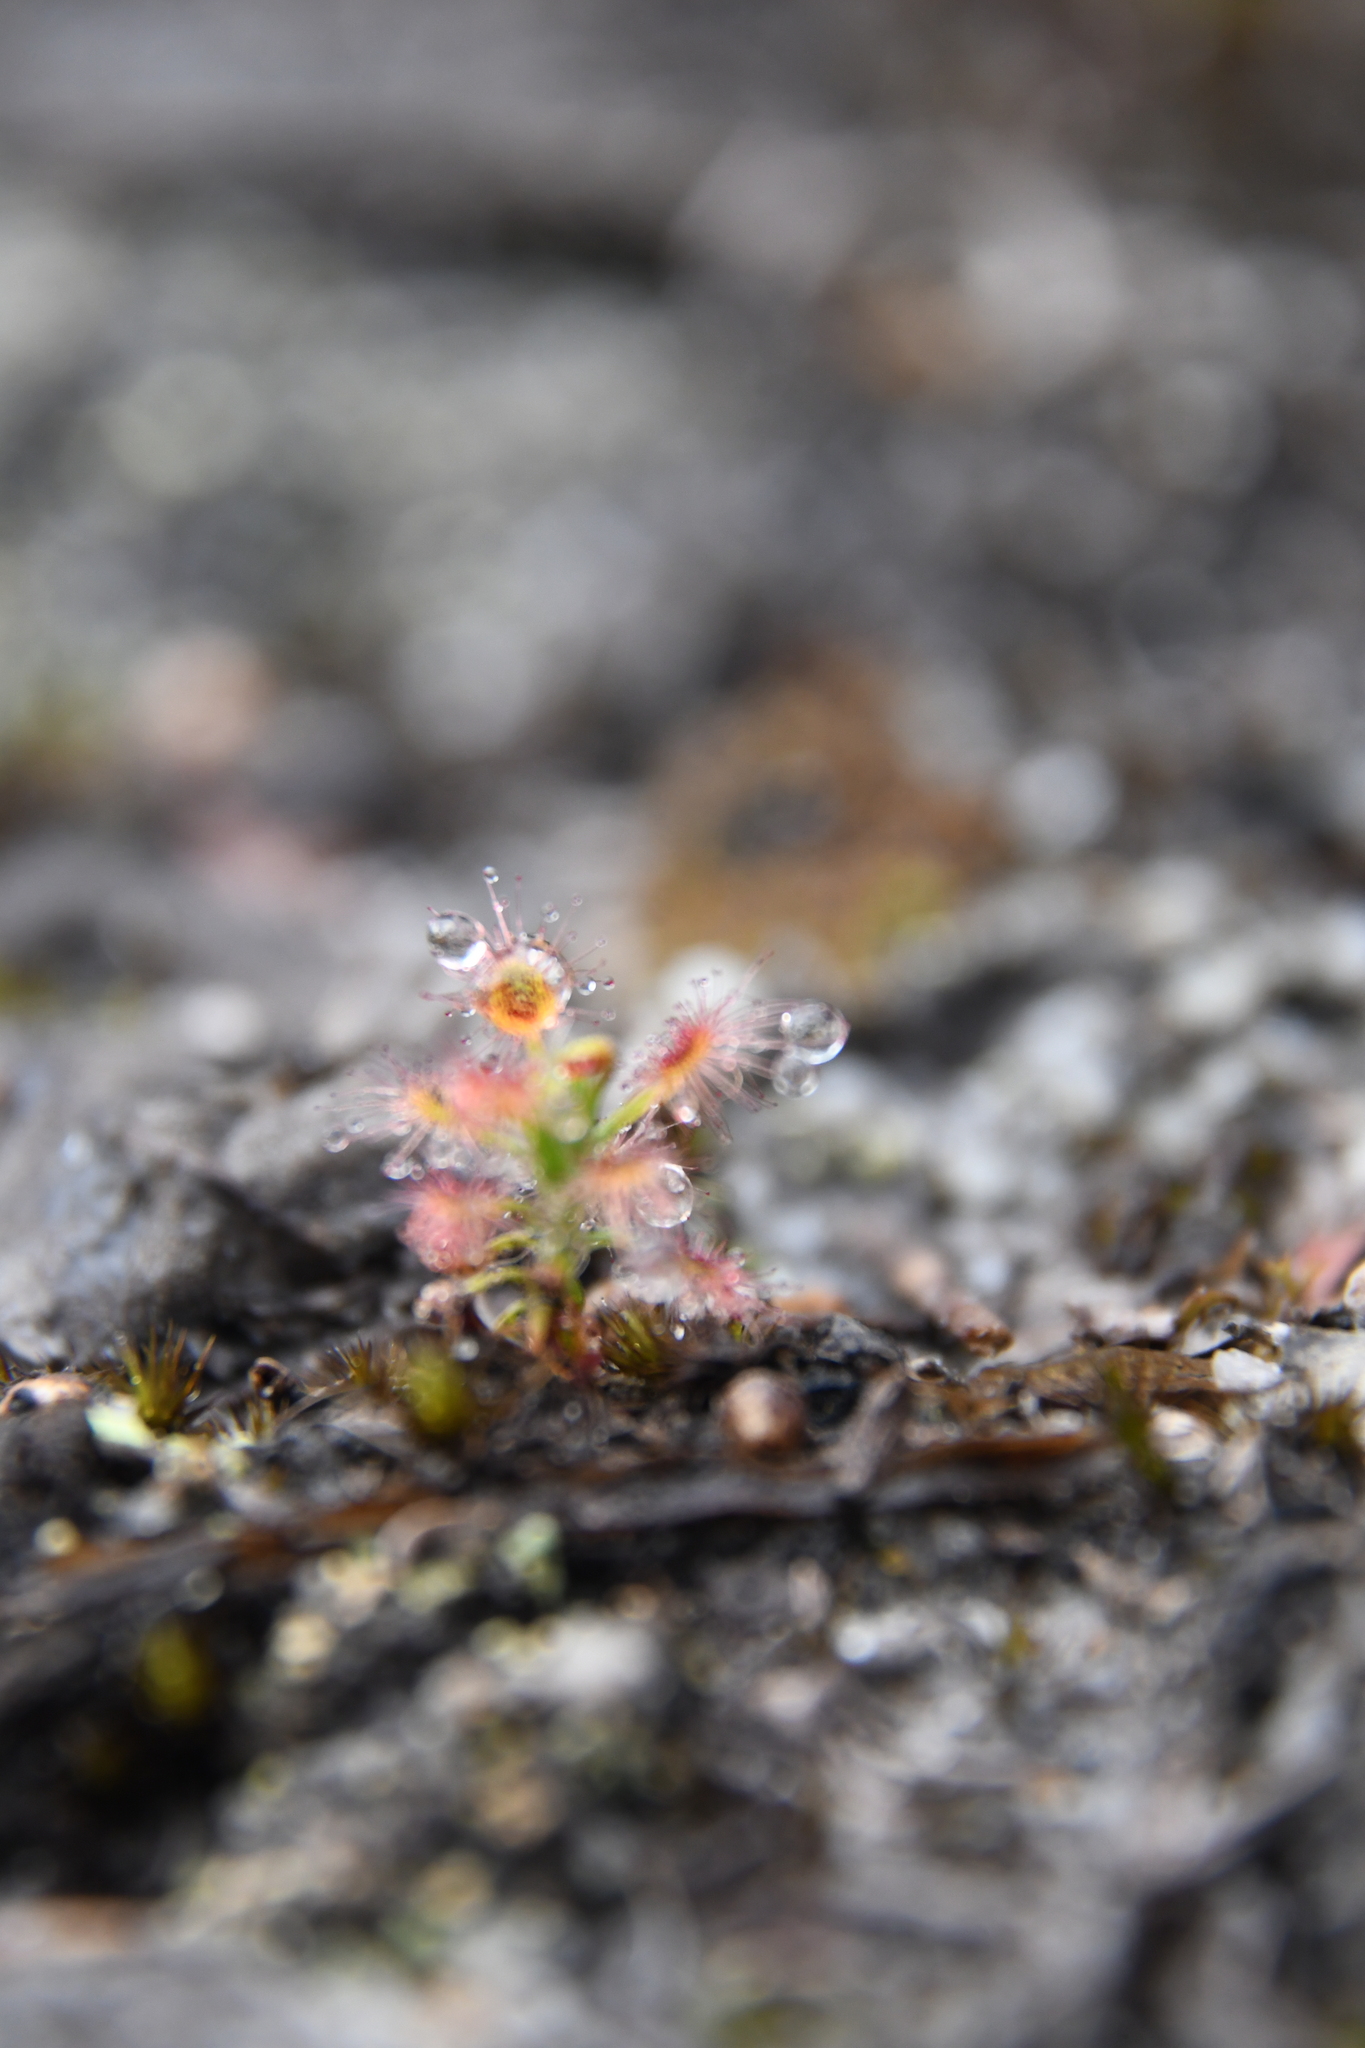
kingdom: Plantae
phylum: Tracheophyta
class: Magnoliopsida
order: Caryophyllales
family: Droseraceae
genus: Drosera
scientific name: Drosera paleacea
